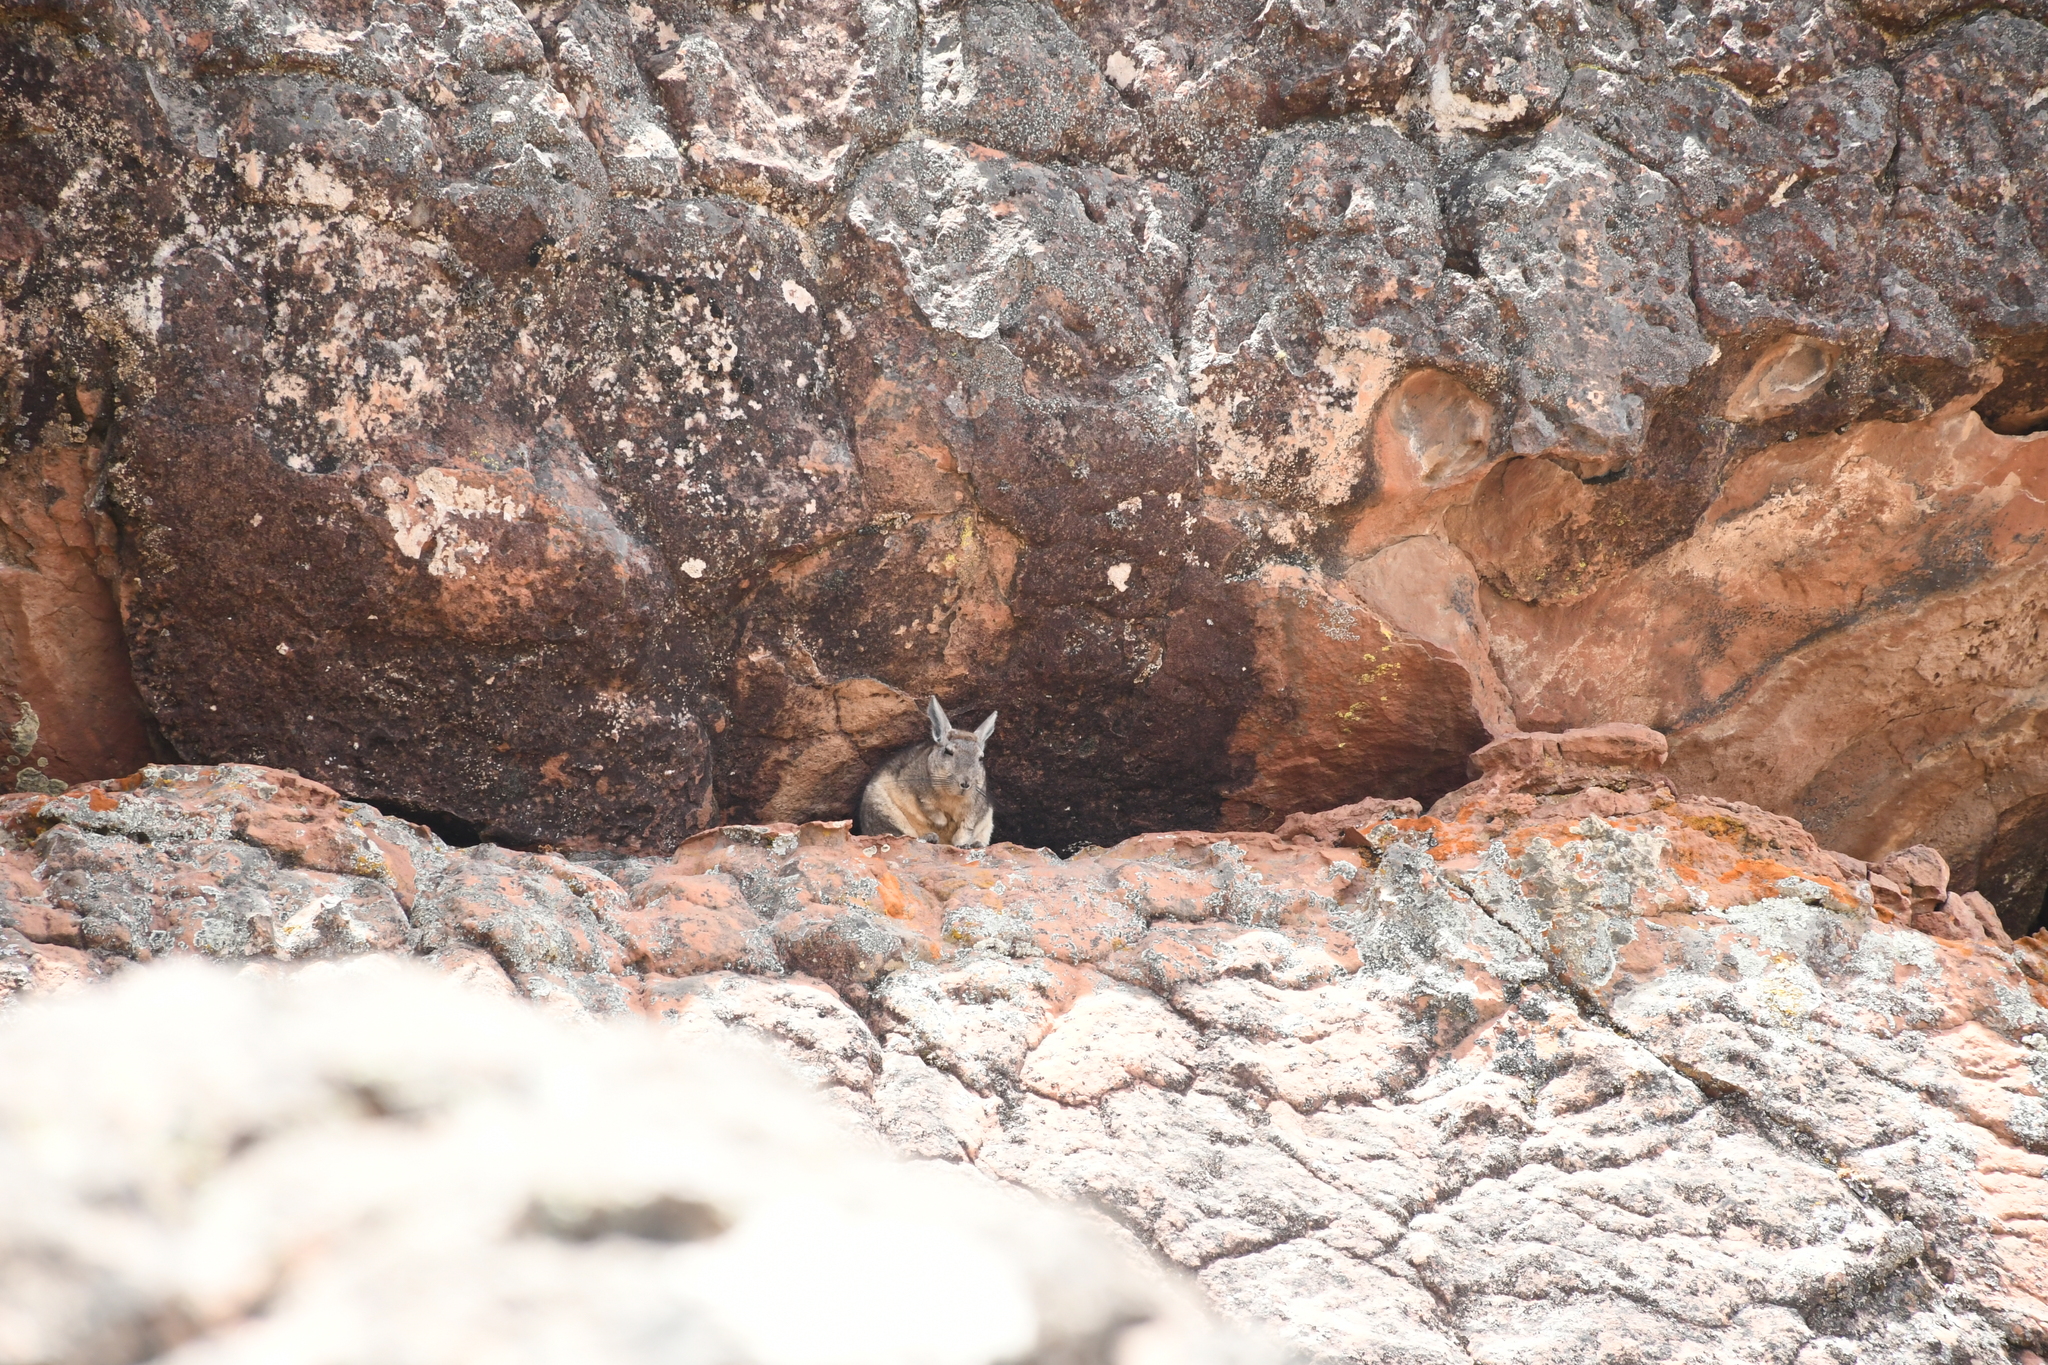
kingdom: Animalia
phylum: Chordata
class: Mammalia
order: Rodentia
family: Chinchillidae
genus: Lagidium
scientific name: Lagidium viscacia
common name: Southern viscacha
